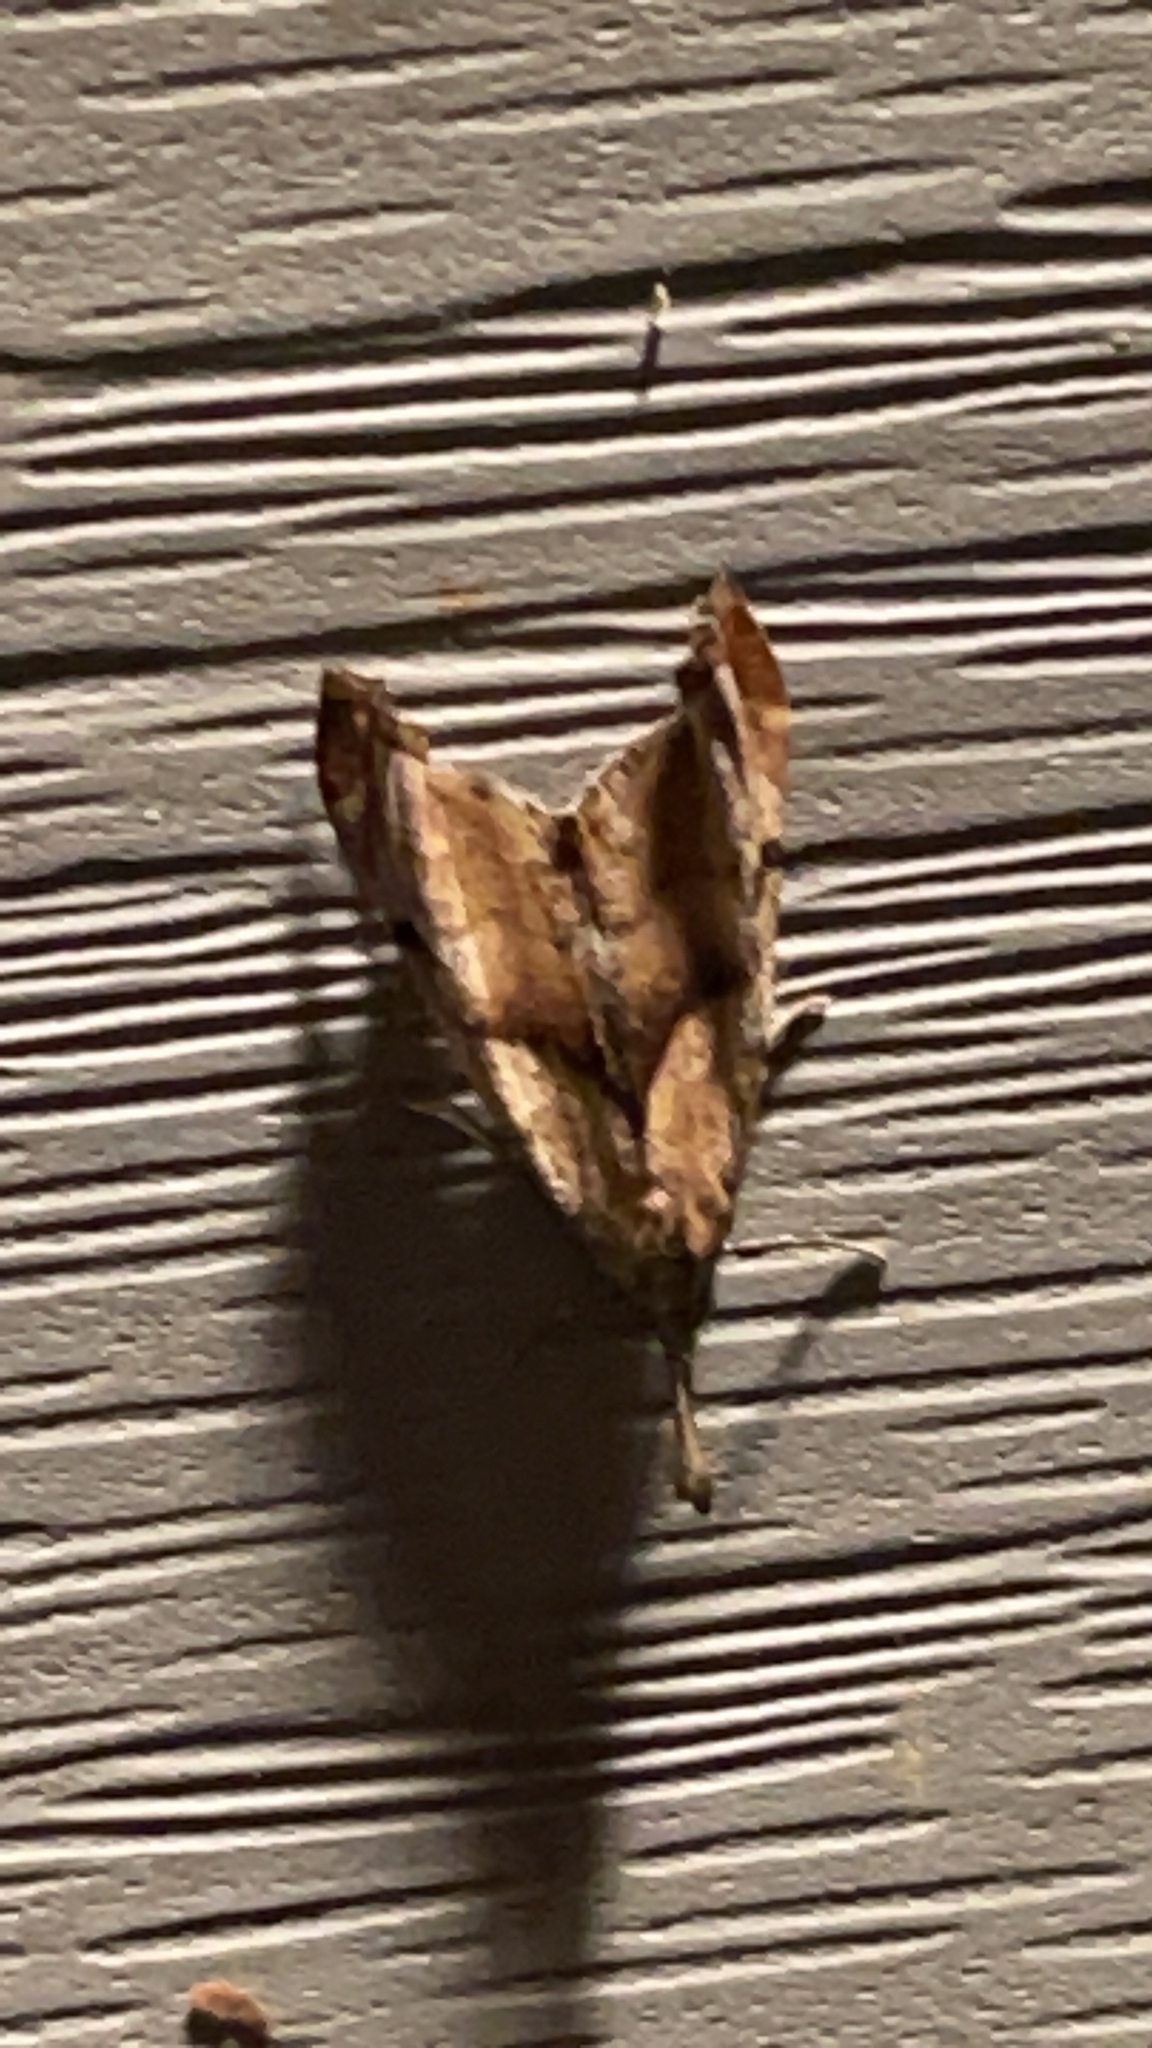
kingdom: Animalia
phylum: Arthropoda
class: Insecta
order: Lepidoptera
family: Erebidae
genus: Palthis
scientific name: Palthis angulalis
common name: Dark-spotted palthis moth
